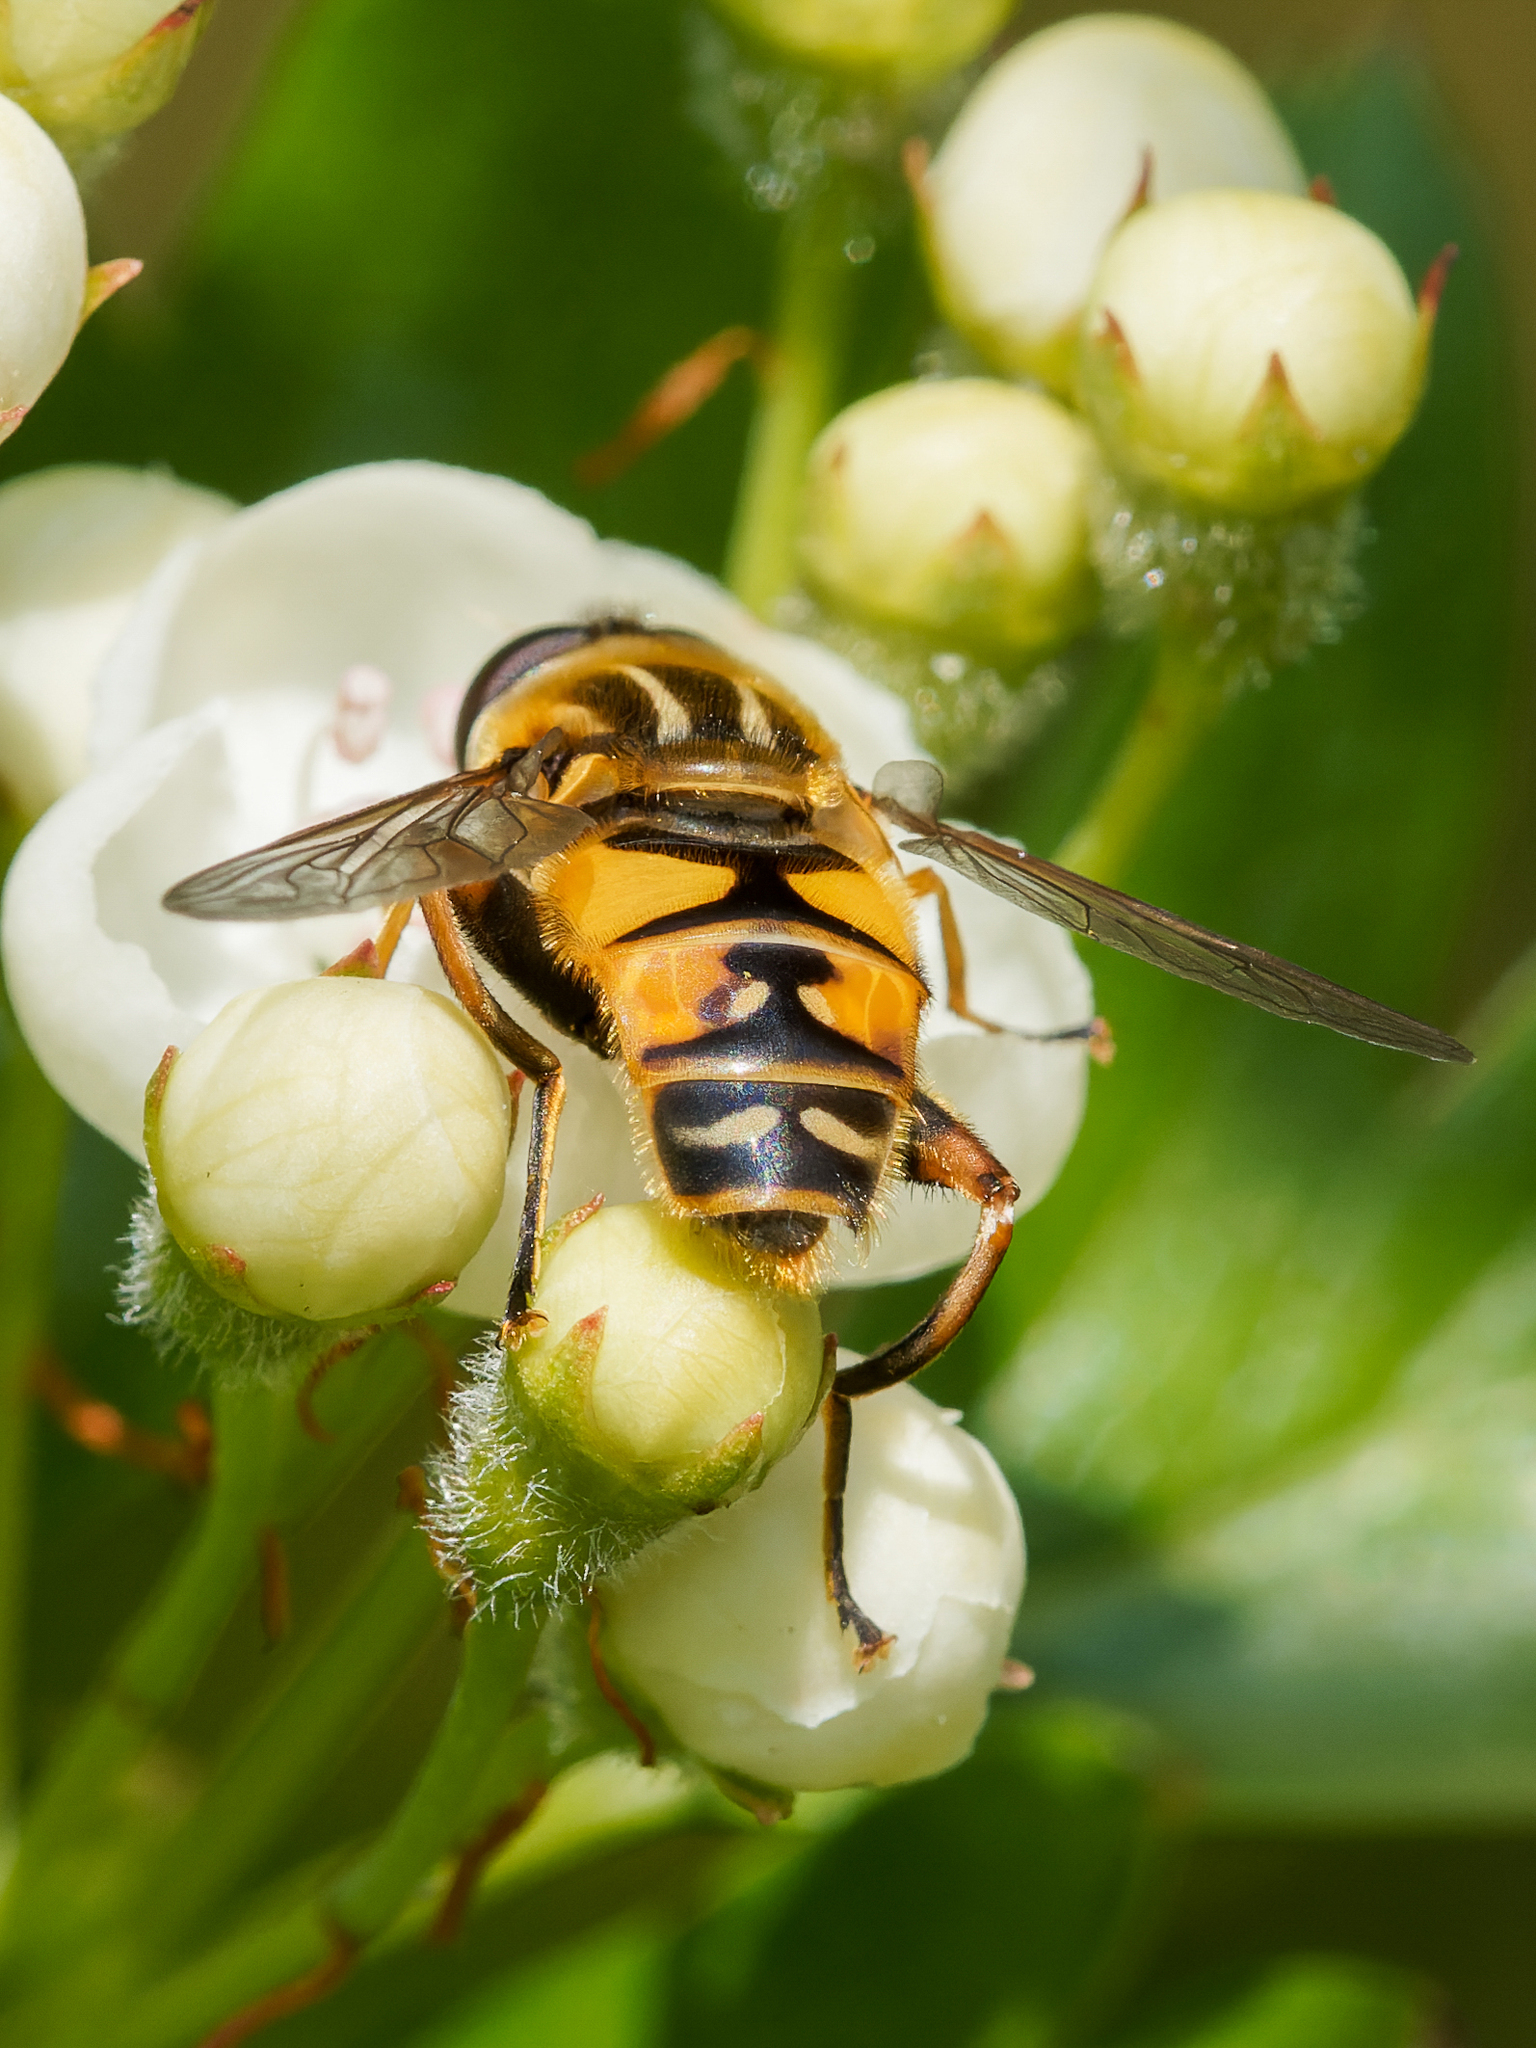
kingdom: Animalia
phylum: Arthropoda
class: Insecta
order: Diptera
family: Syrphidae
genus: Helophilus
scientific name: Helophilus pendulus
